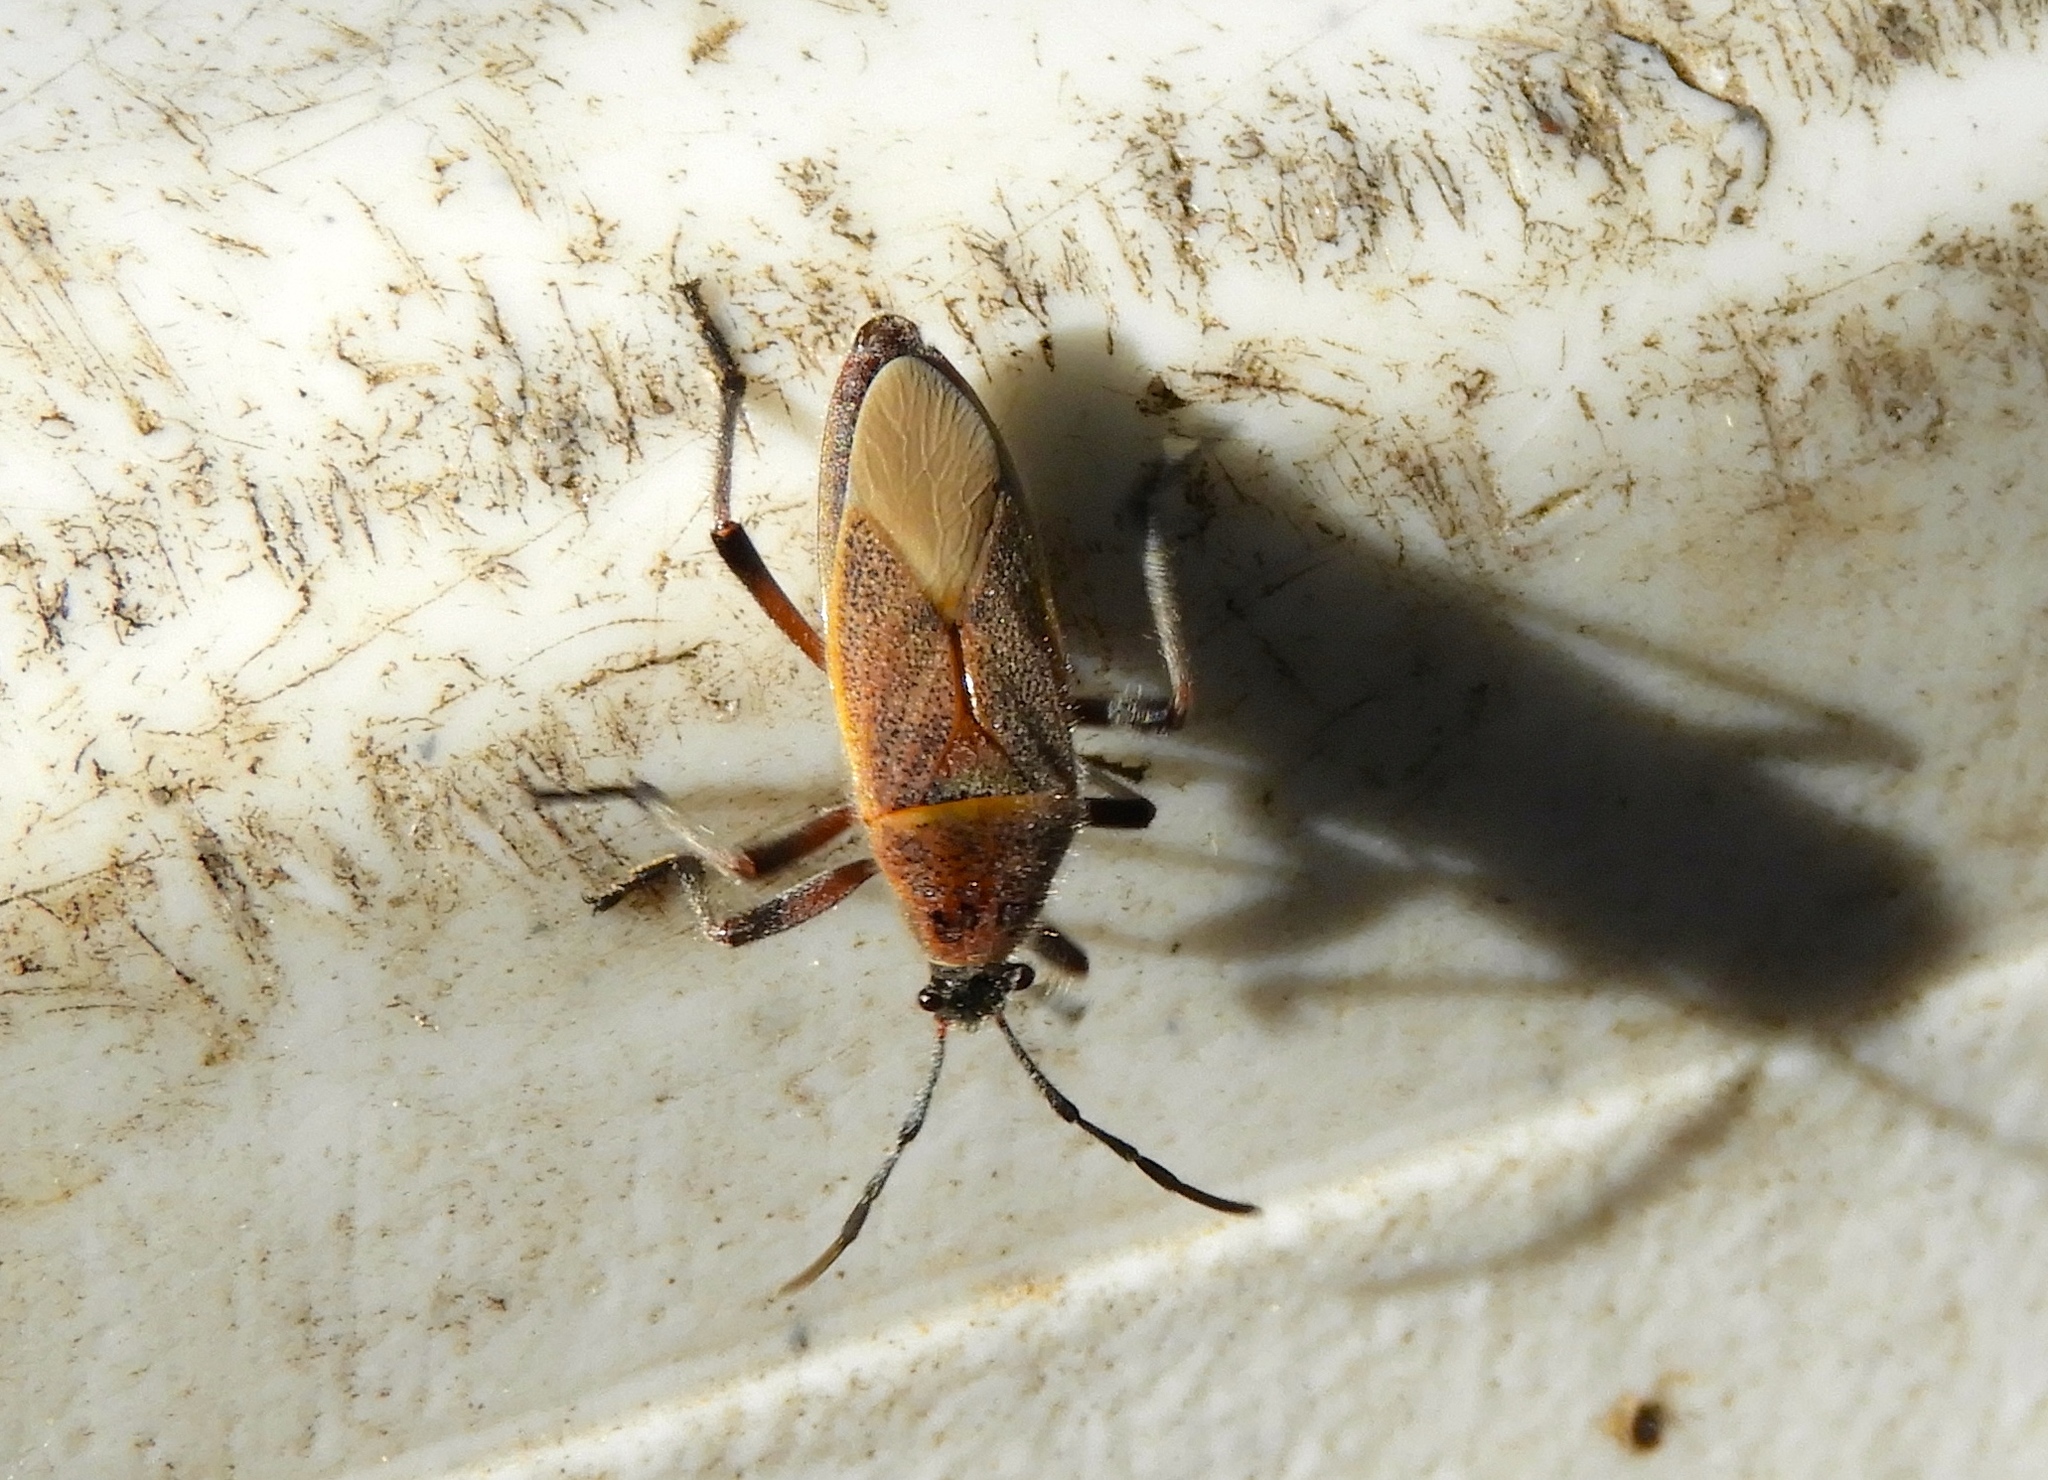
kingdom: Animalia
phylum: Arthropoda
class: Insecta
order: Hemiptera
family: Largidae
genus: Largus
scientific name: Largus
